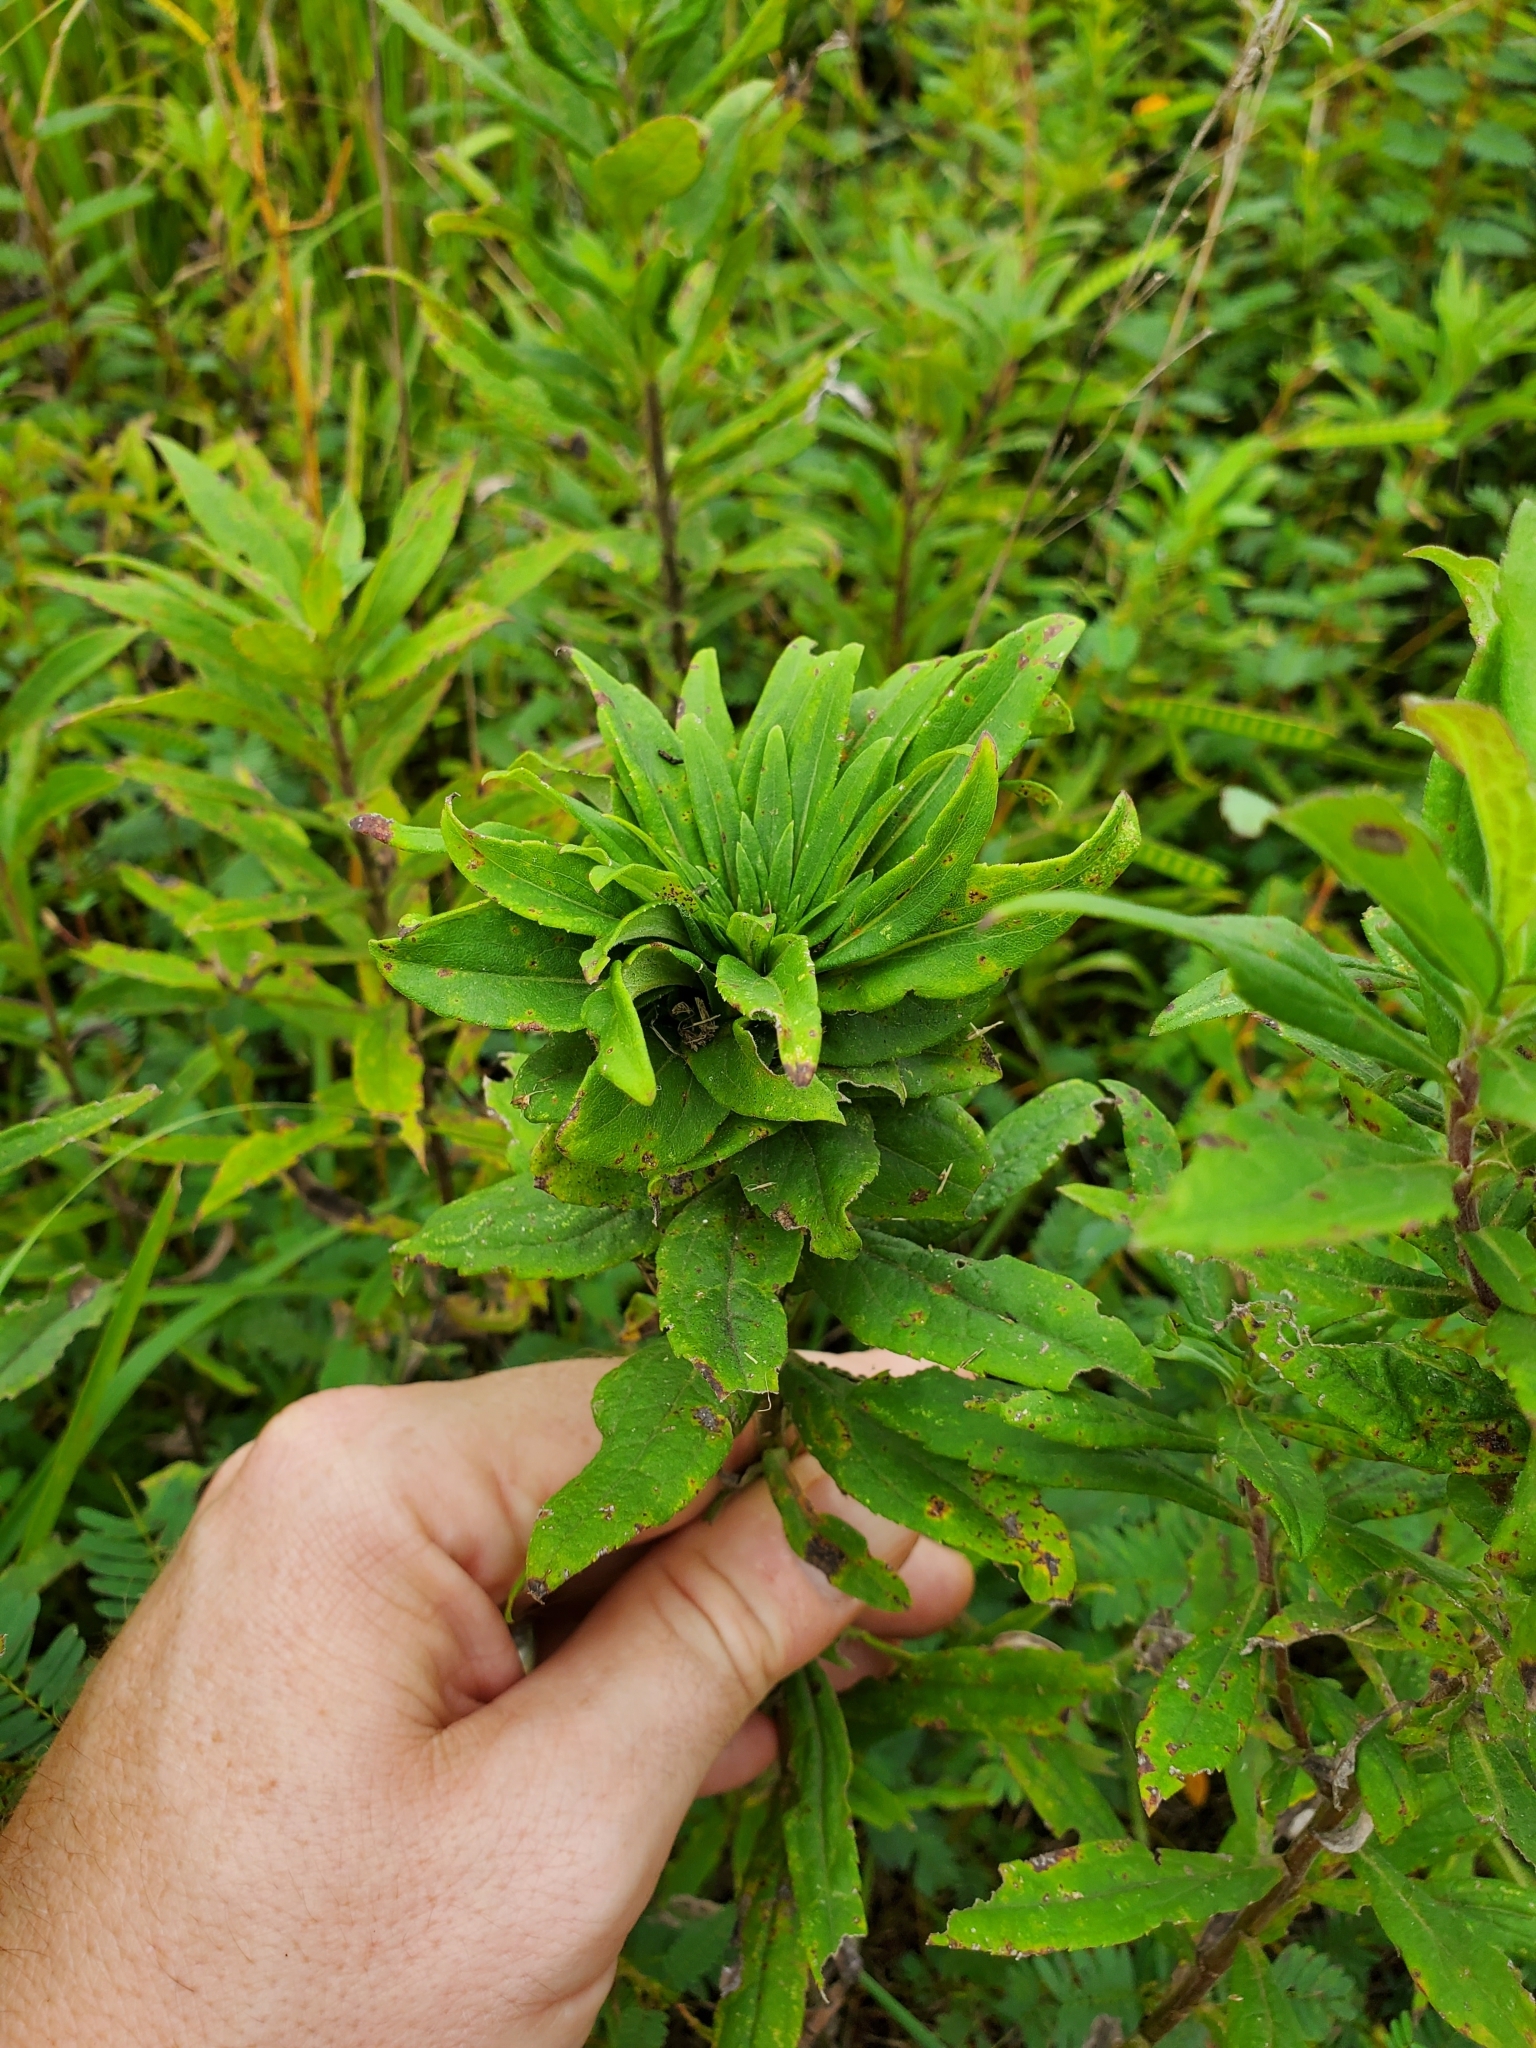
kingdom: Animalia
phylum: Arthropoda
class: Insecta
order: Diptera
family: Cecidomyiidae
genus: Rhopalomyia
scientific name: Rhopalomyia solidaginis
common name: Goldenrod bunch gall midge
